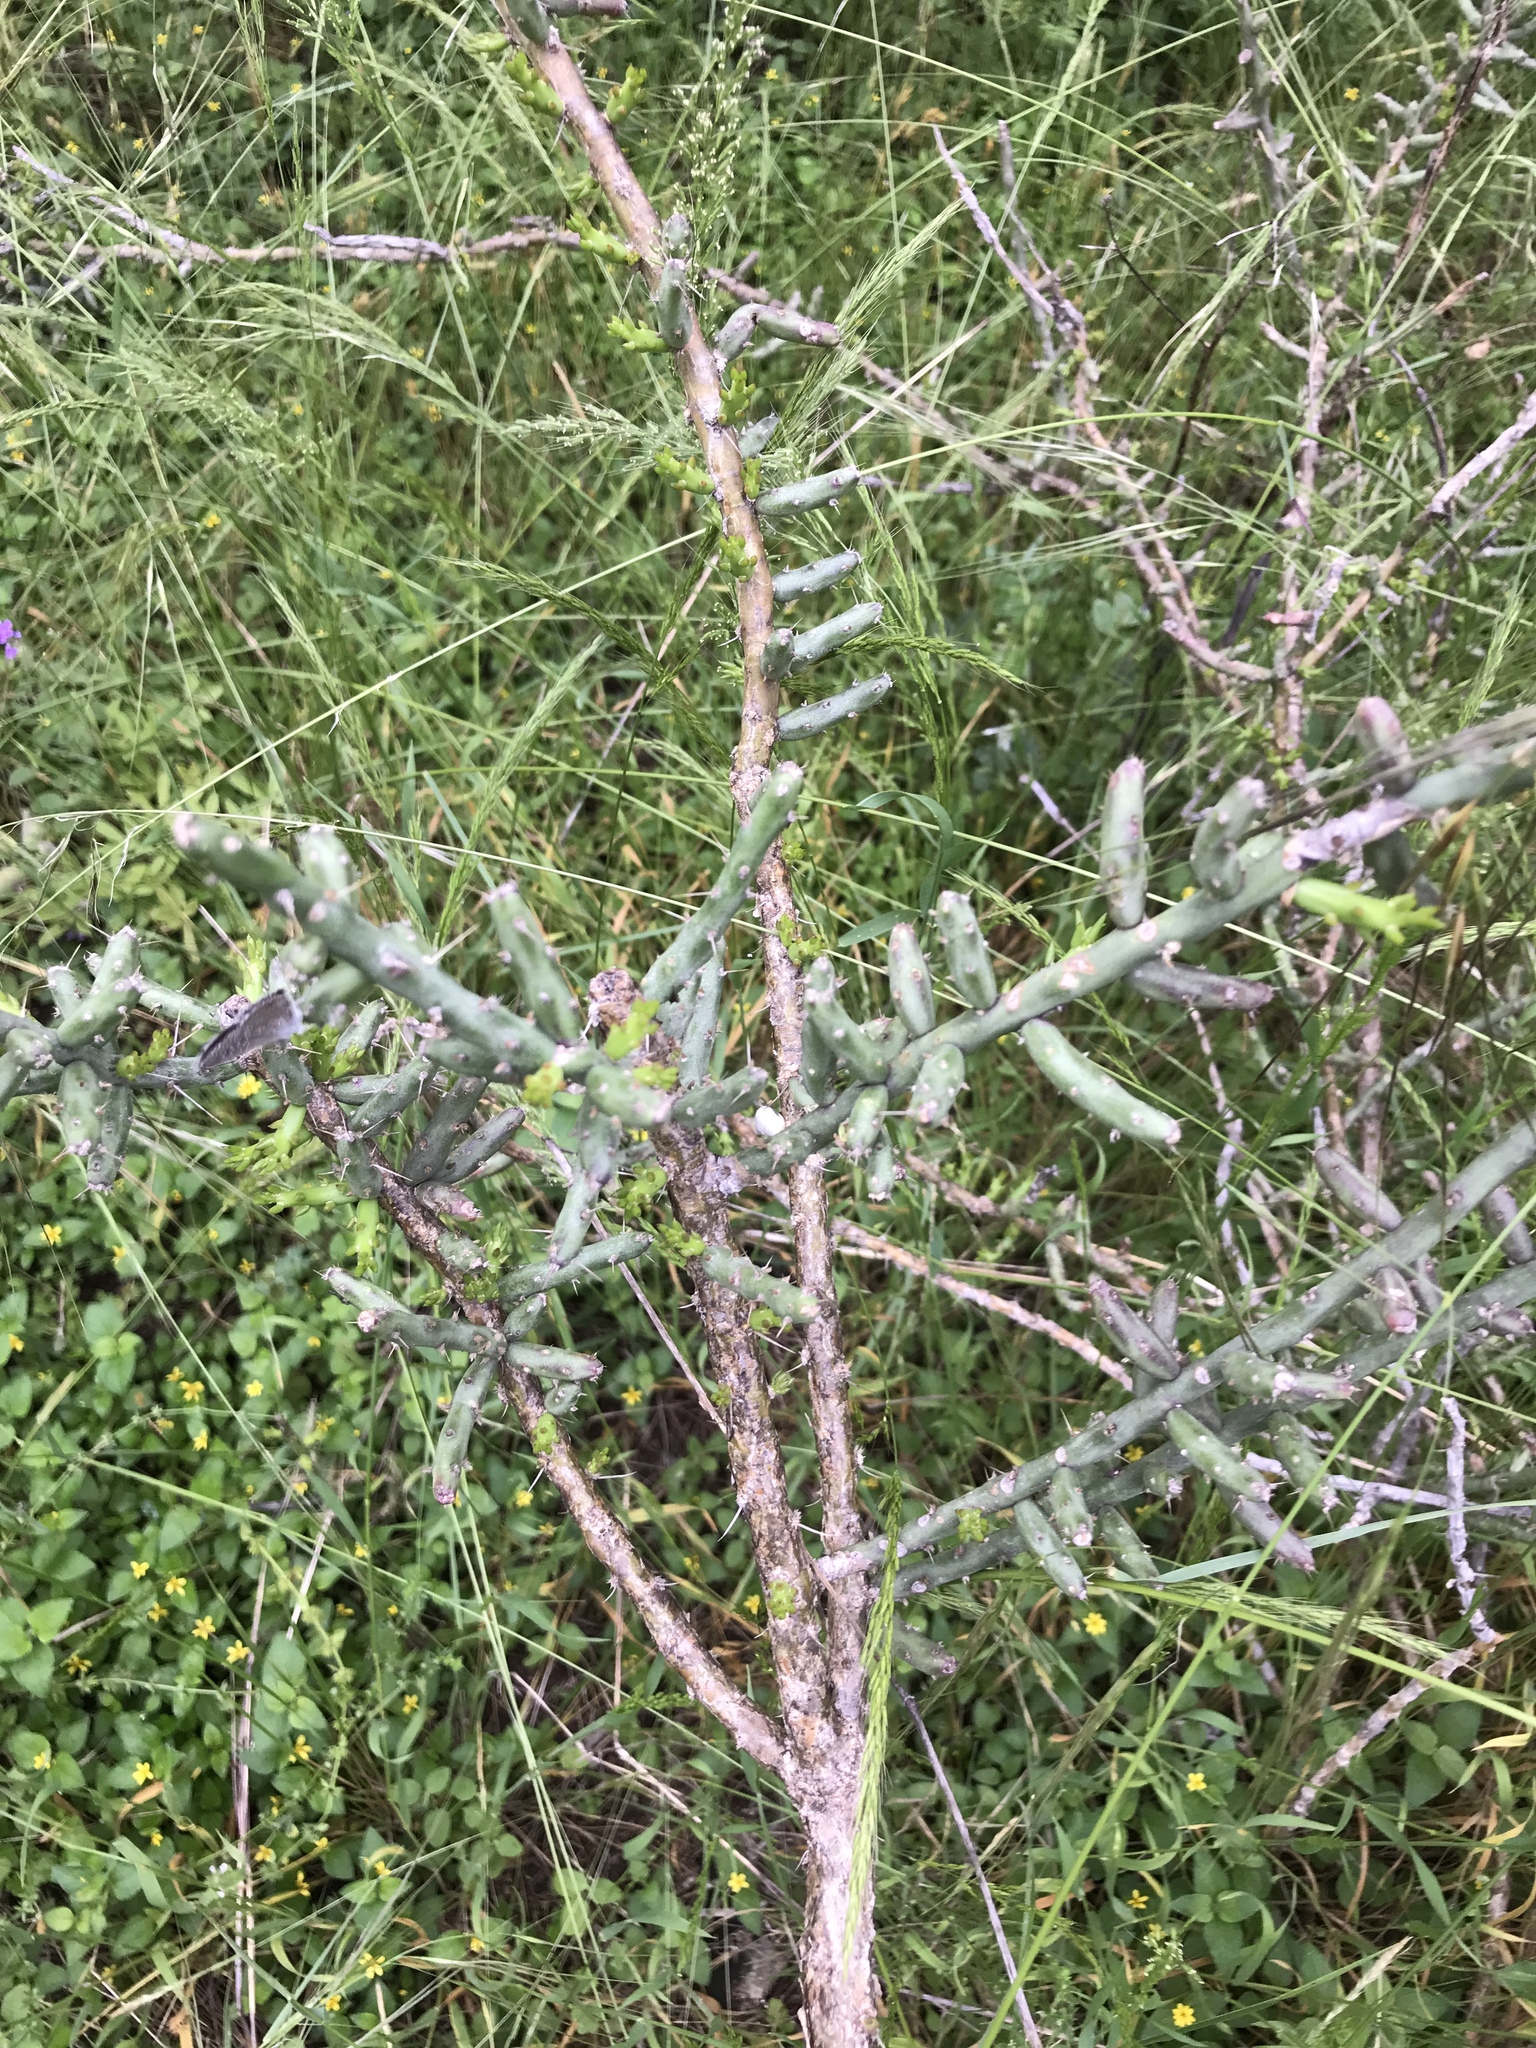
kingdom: Plantae
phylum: Tracheophyta
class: Magnoliopsida
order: Caryophyllales
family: Cactaceae
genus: Cylindropuntia
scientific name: Cylindropuntia leptocaulis
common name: Christmas cactus
